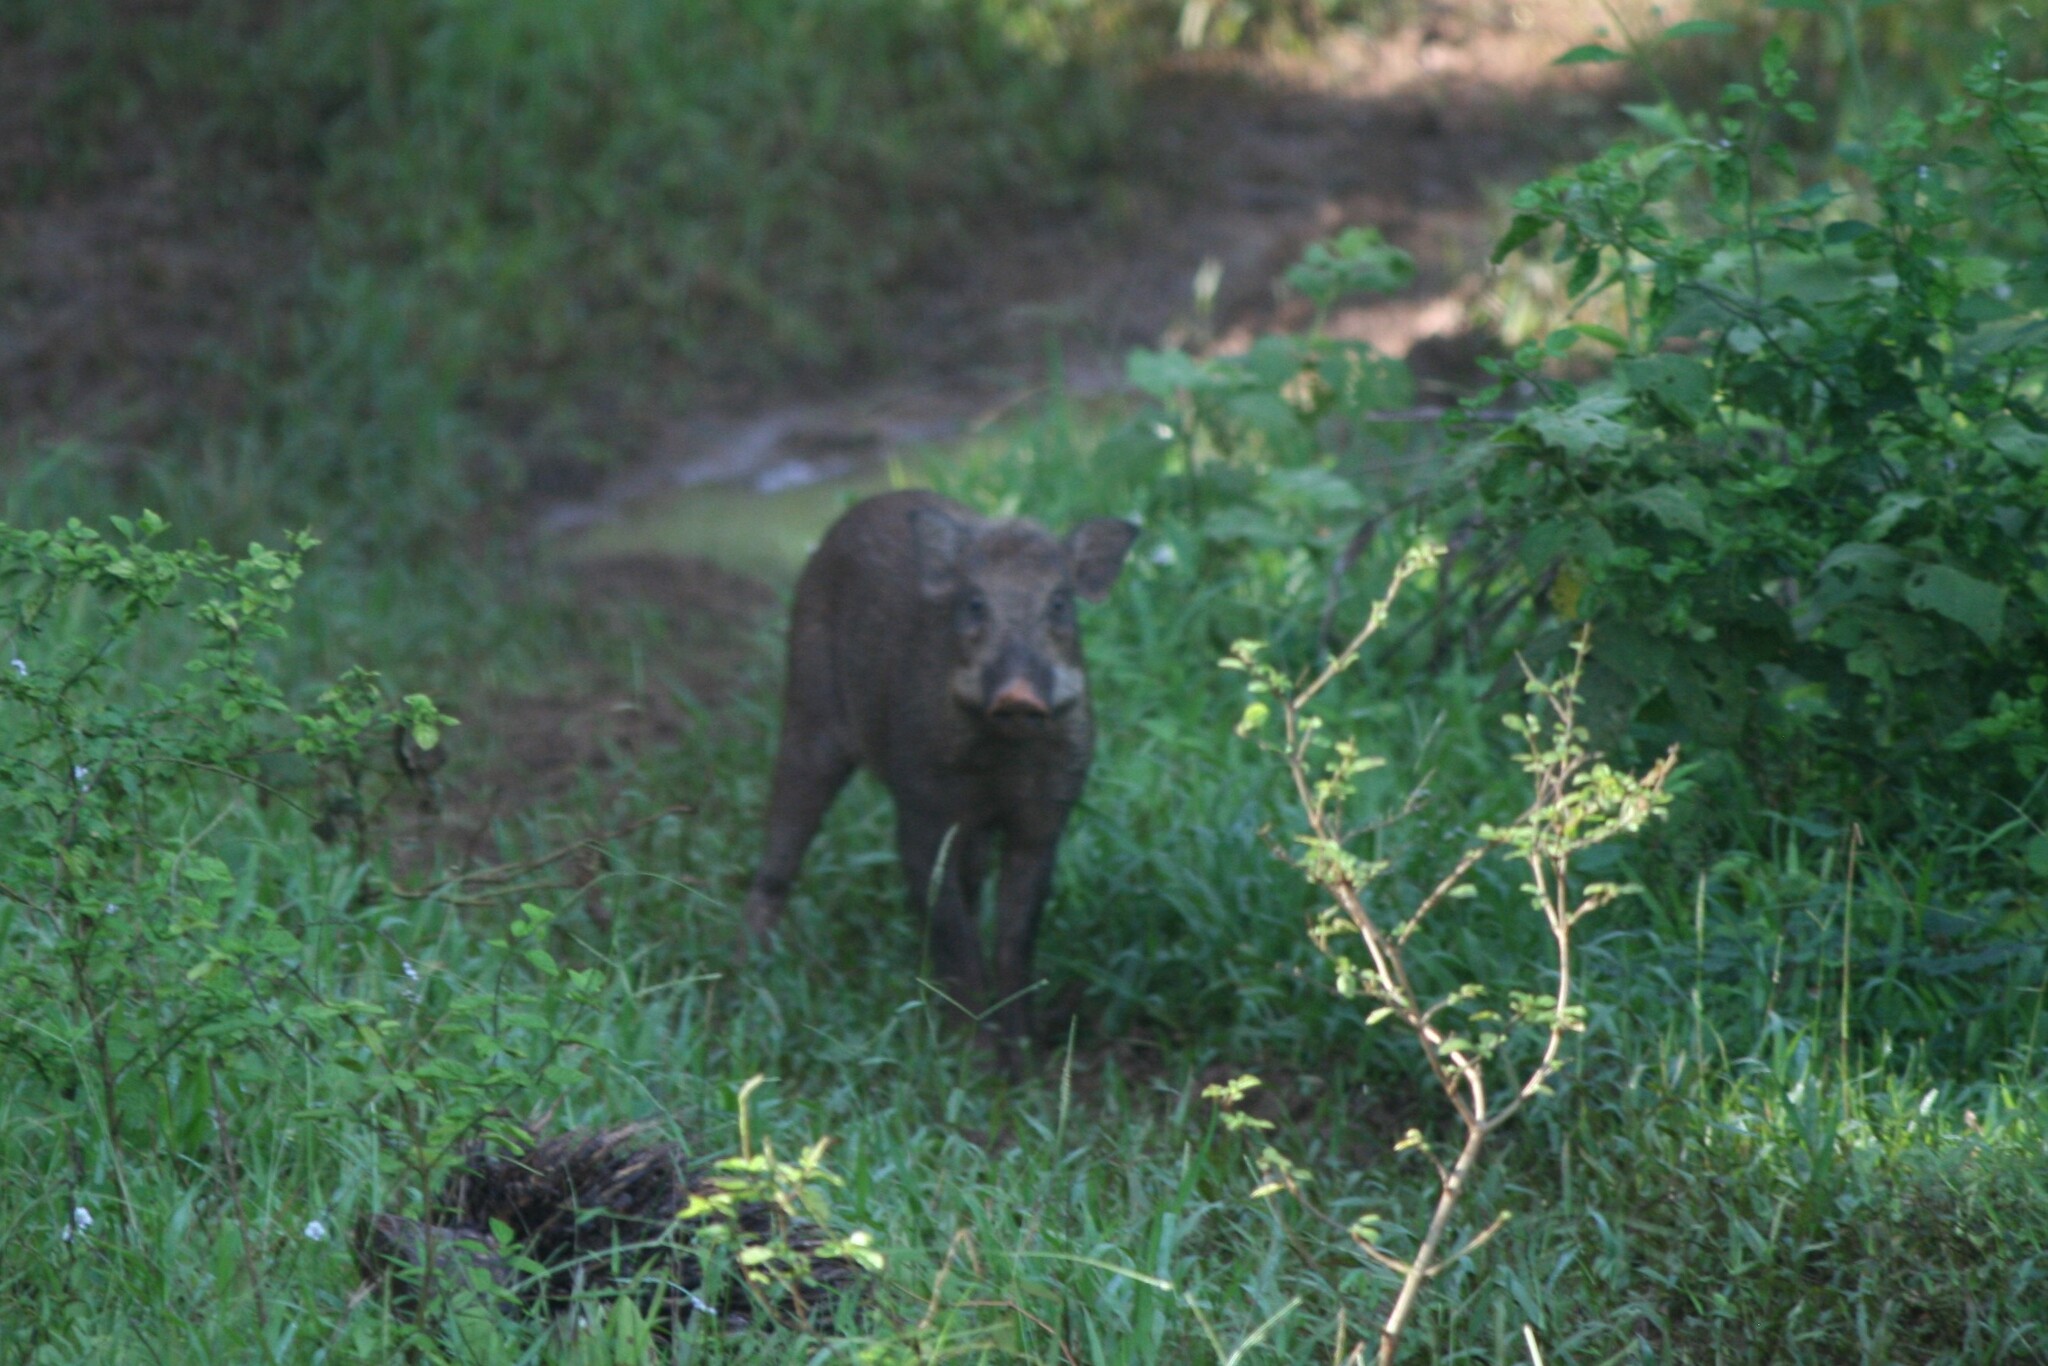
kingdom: Animalia
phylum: Chordata
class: Mammalia
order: Artiodactyla
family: Suidae
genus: Sus
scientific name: Sus scrofa
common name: Wild boar
